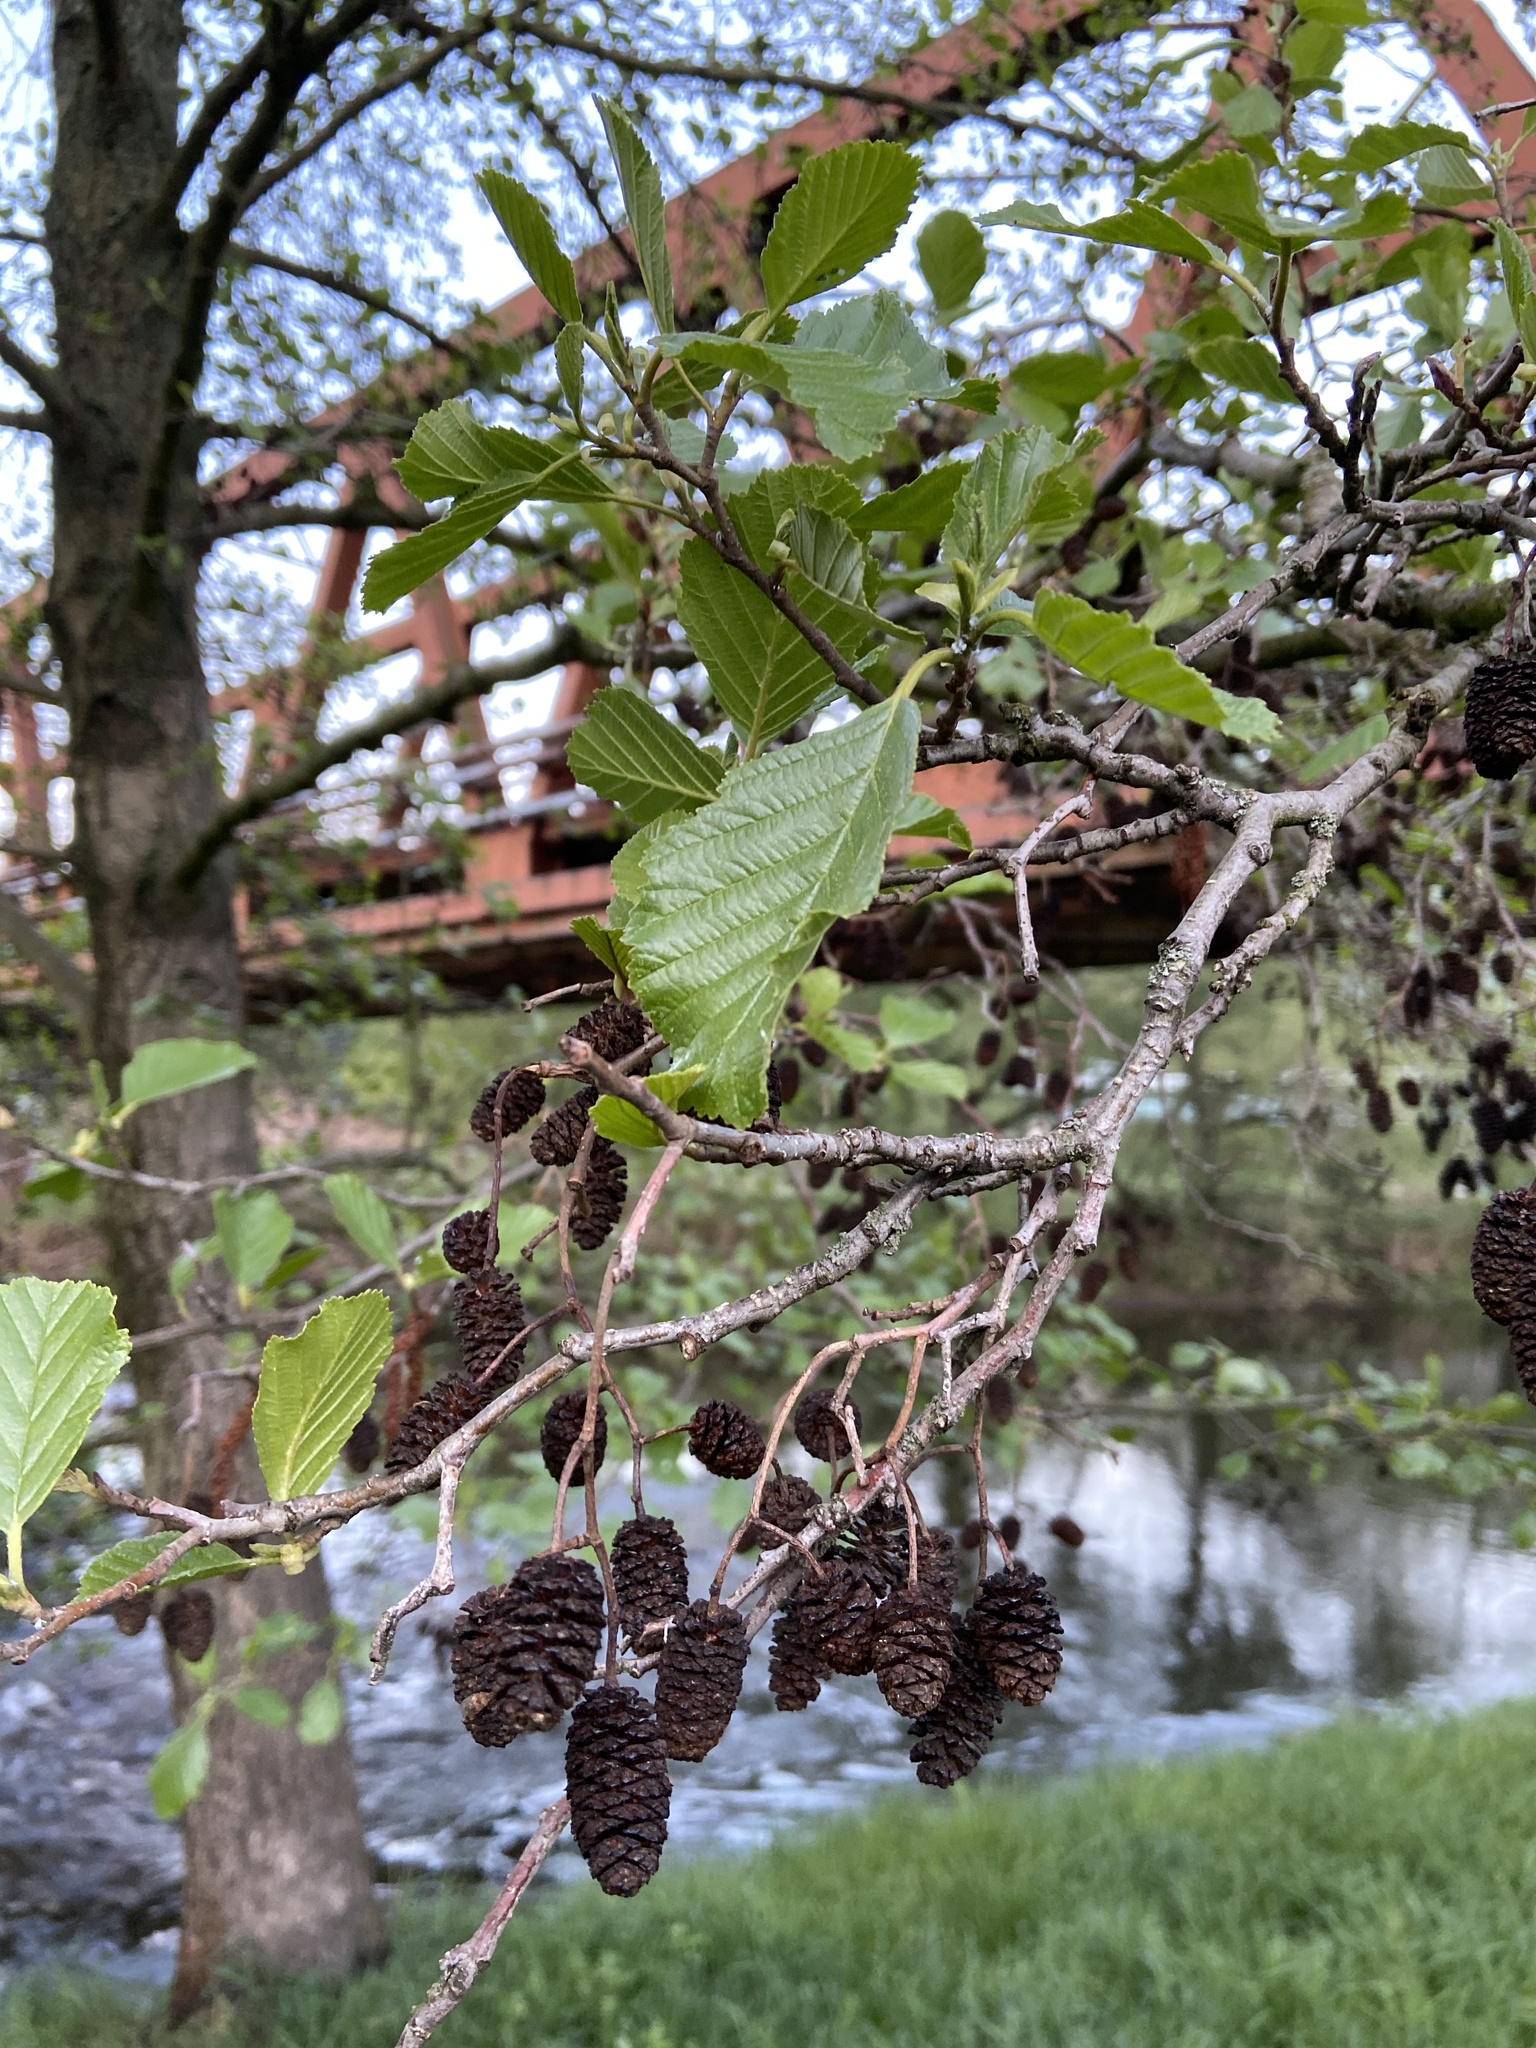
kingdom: Plantae
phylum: Tracheophyta
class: Magnoliopsida
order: Fagales
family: Betulaceae
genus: Alnus
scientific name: Alnus glutinosa
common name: Black alder
